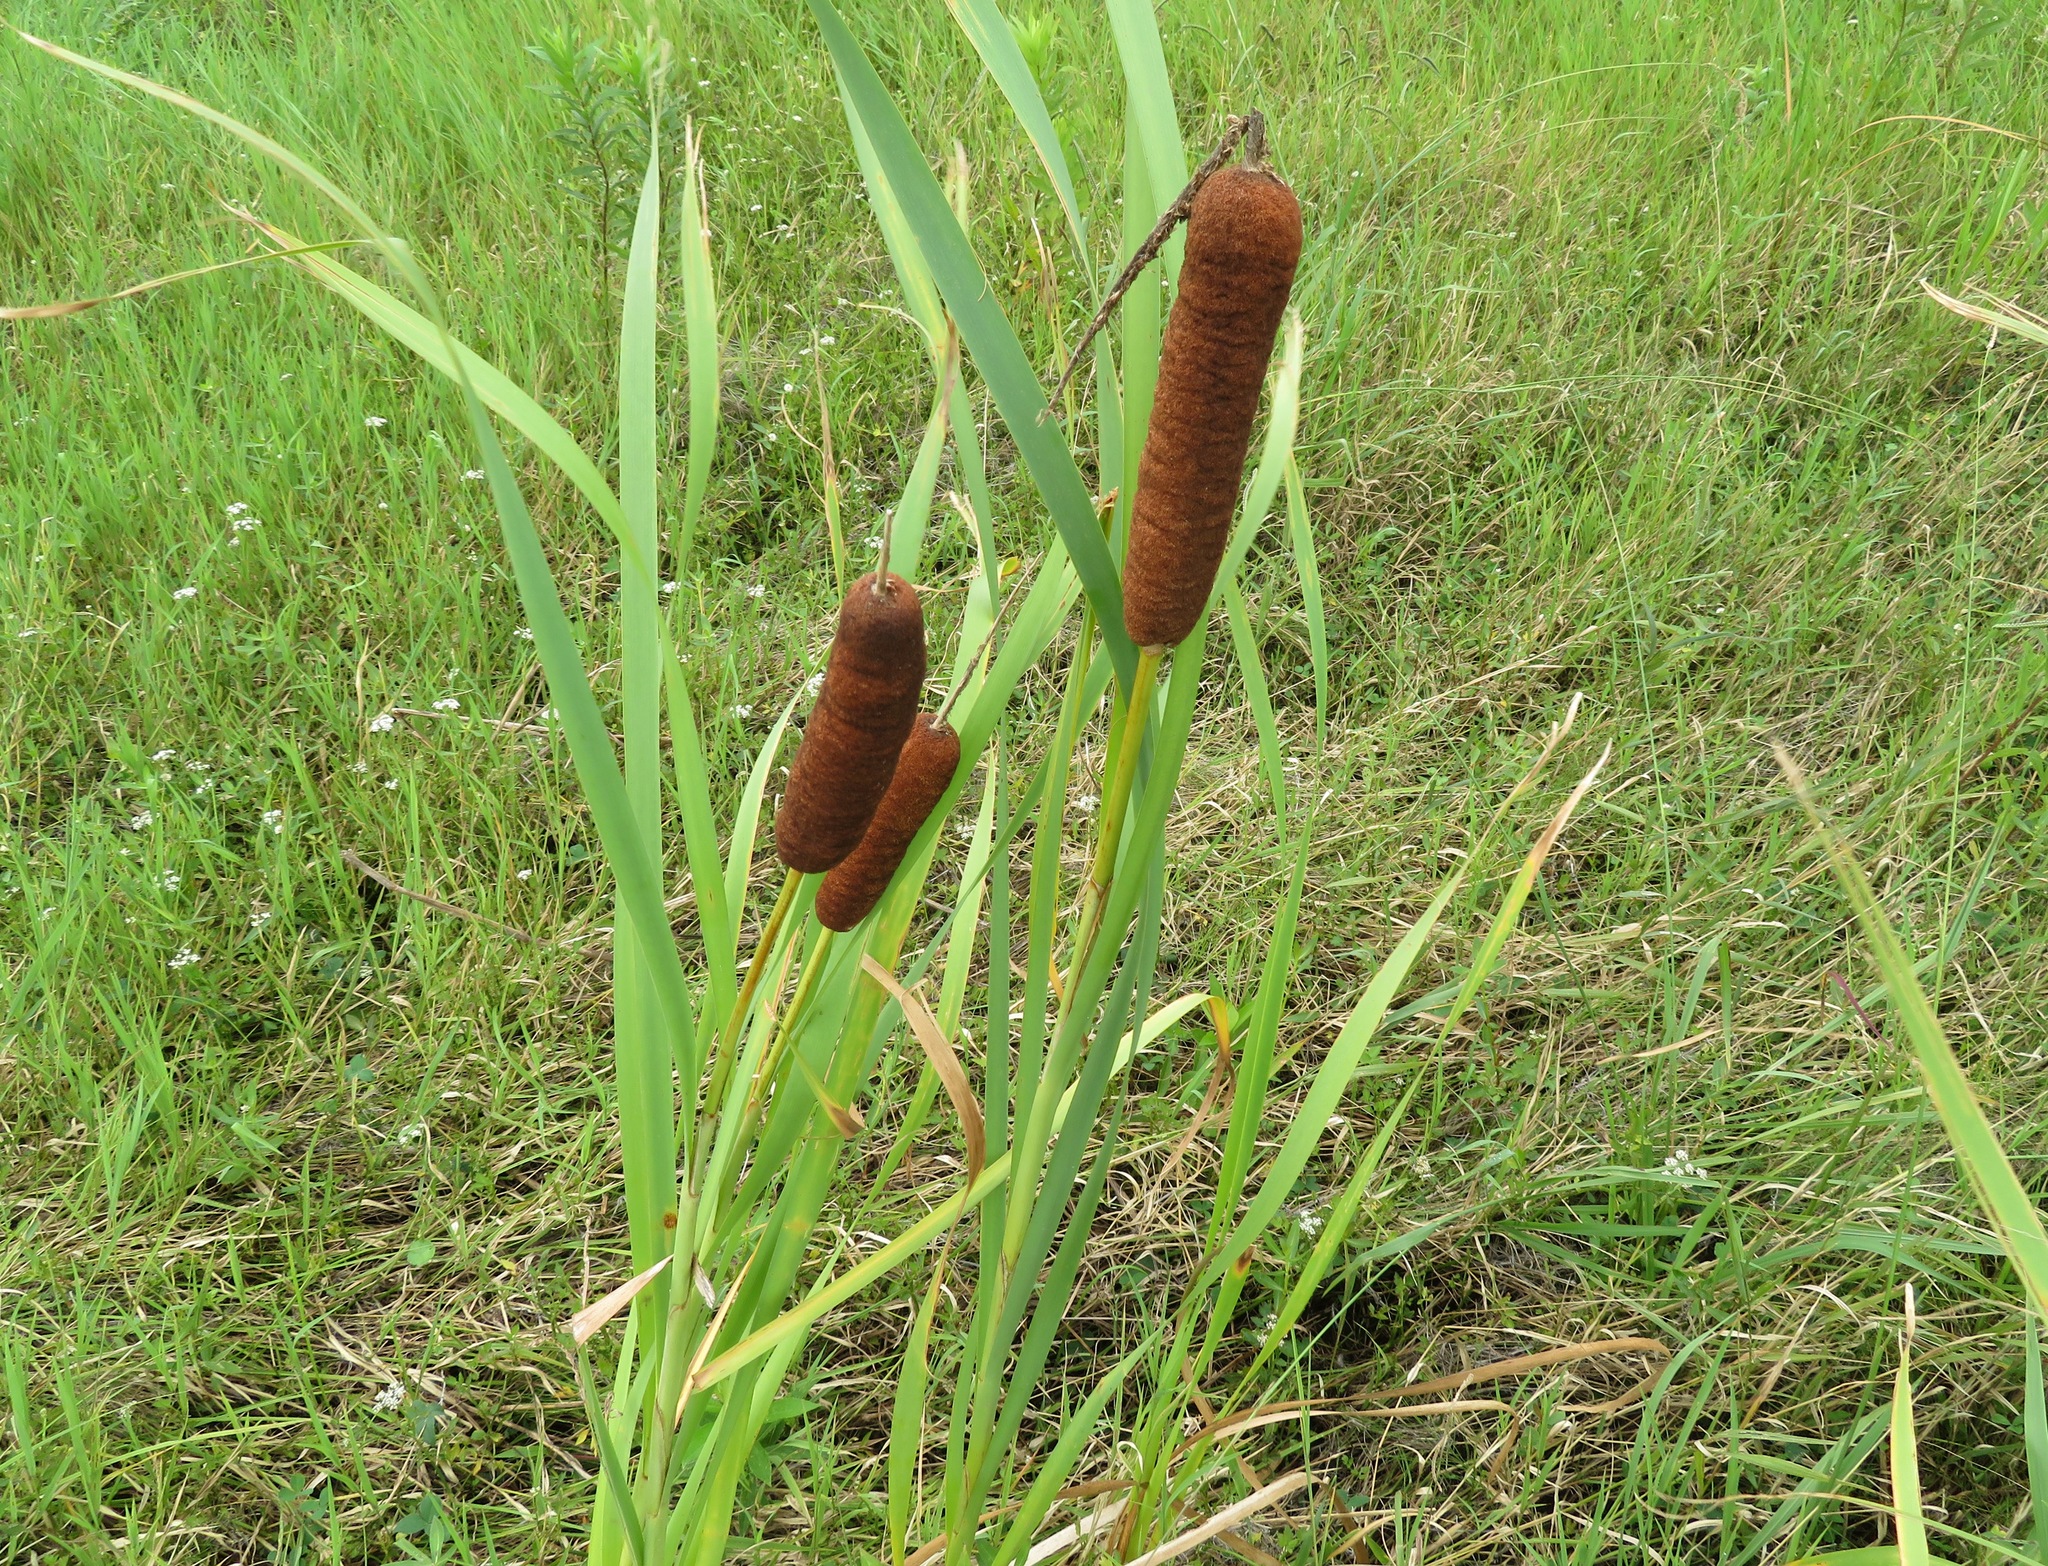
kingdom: Plantae
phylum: Tracheophyta
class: Liliopsida
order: Poales
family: Typhaceae
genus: Typha
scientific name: Typha latifolia
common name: Broadleaf cattail
